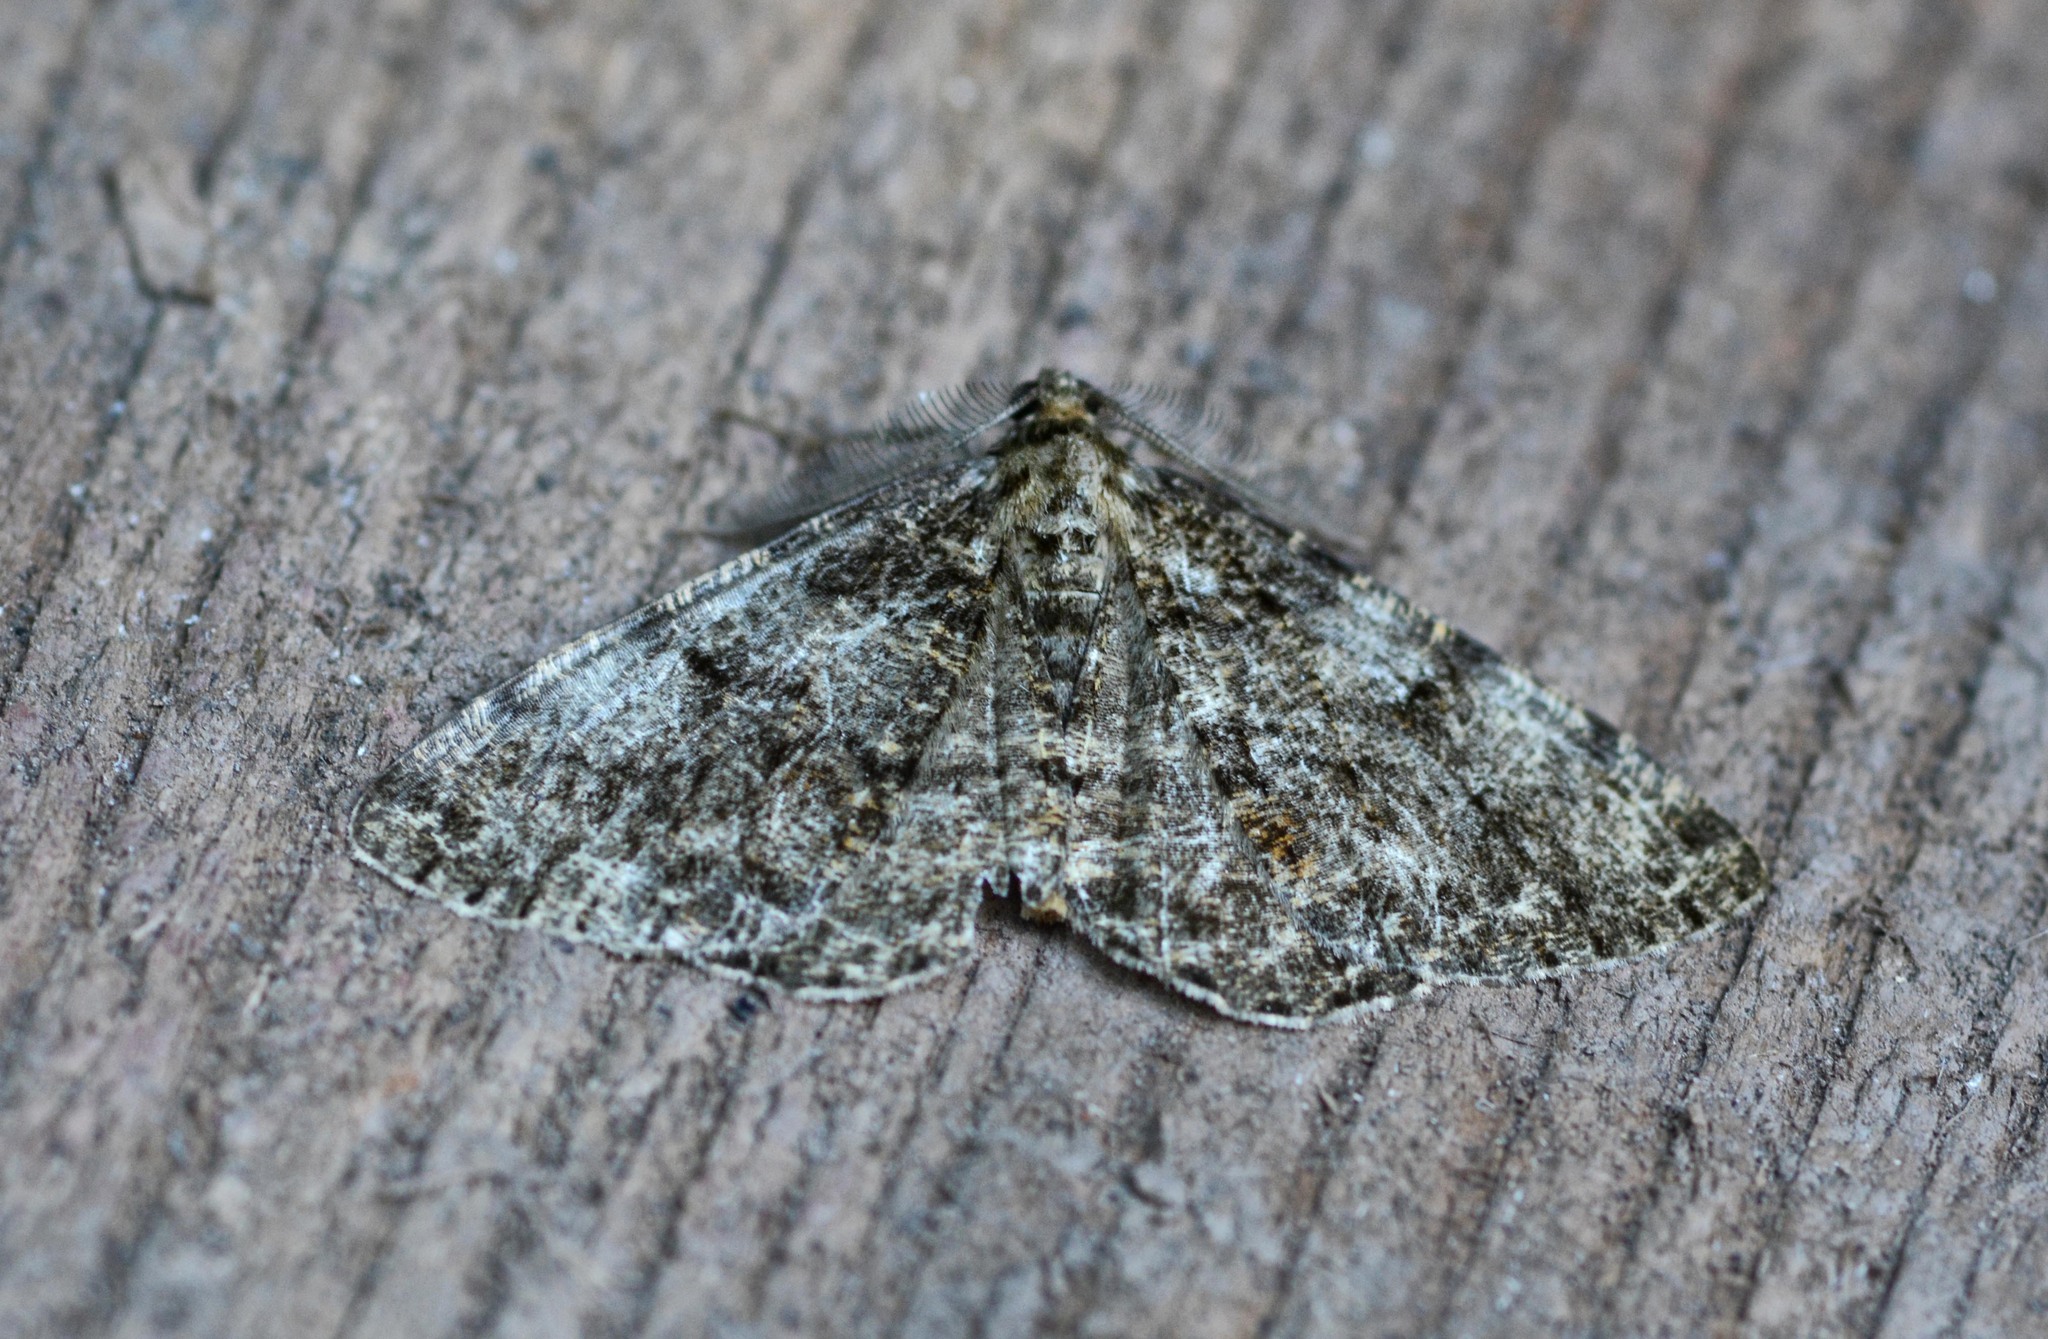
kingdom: Animalia
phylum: Arthropoda
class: Insecta
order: Lepidoptera
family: Geometridae
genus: Deileptenia
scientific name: Deileptenia ribeata
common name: Satin beauty
